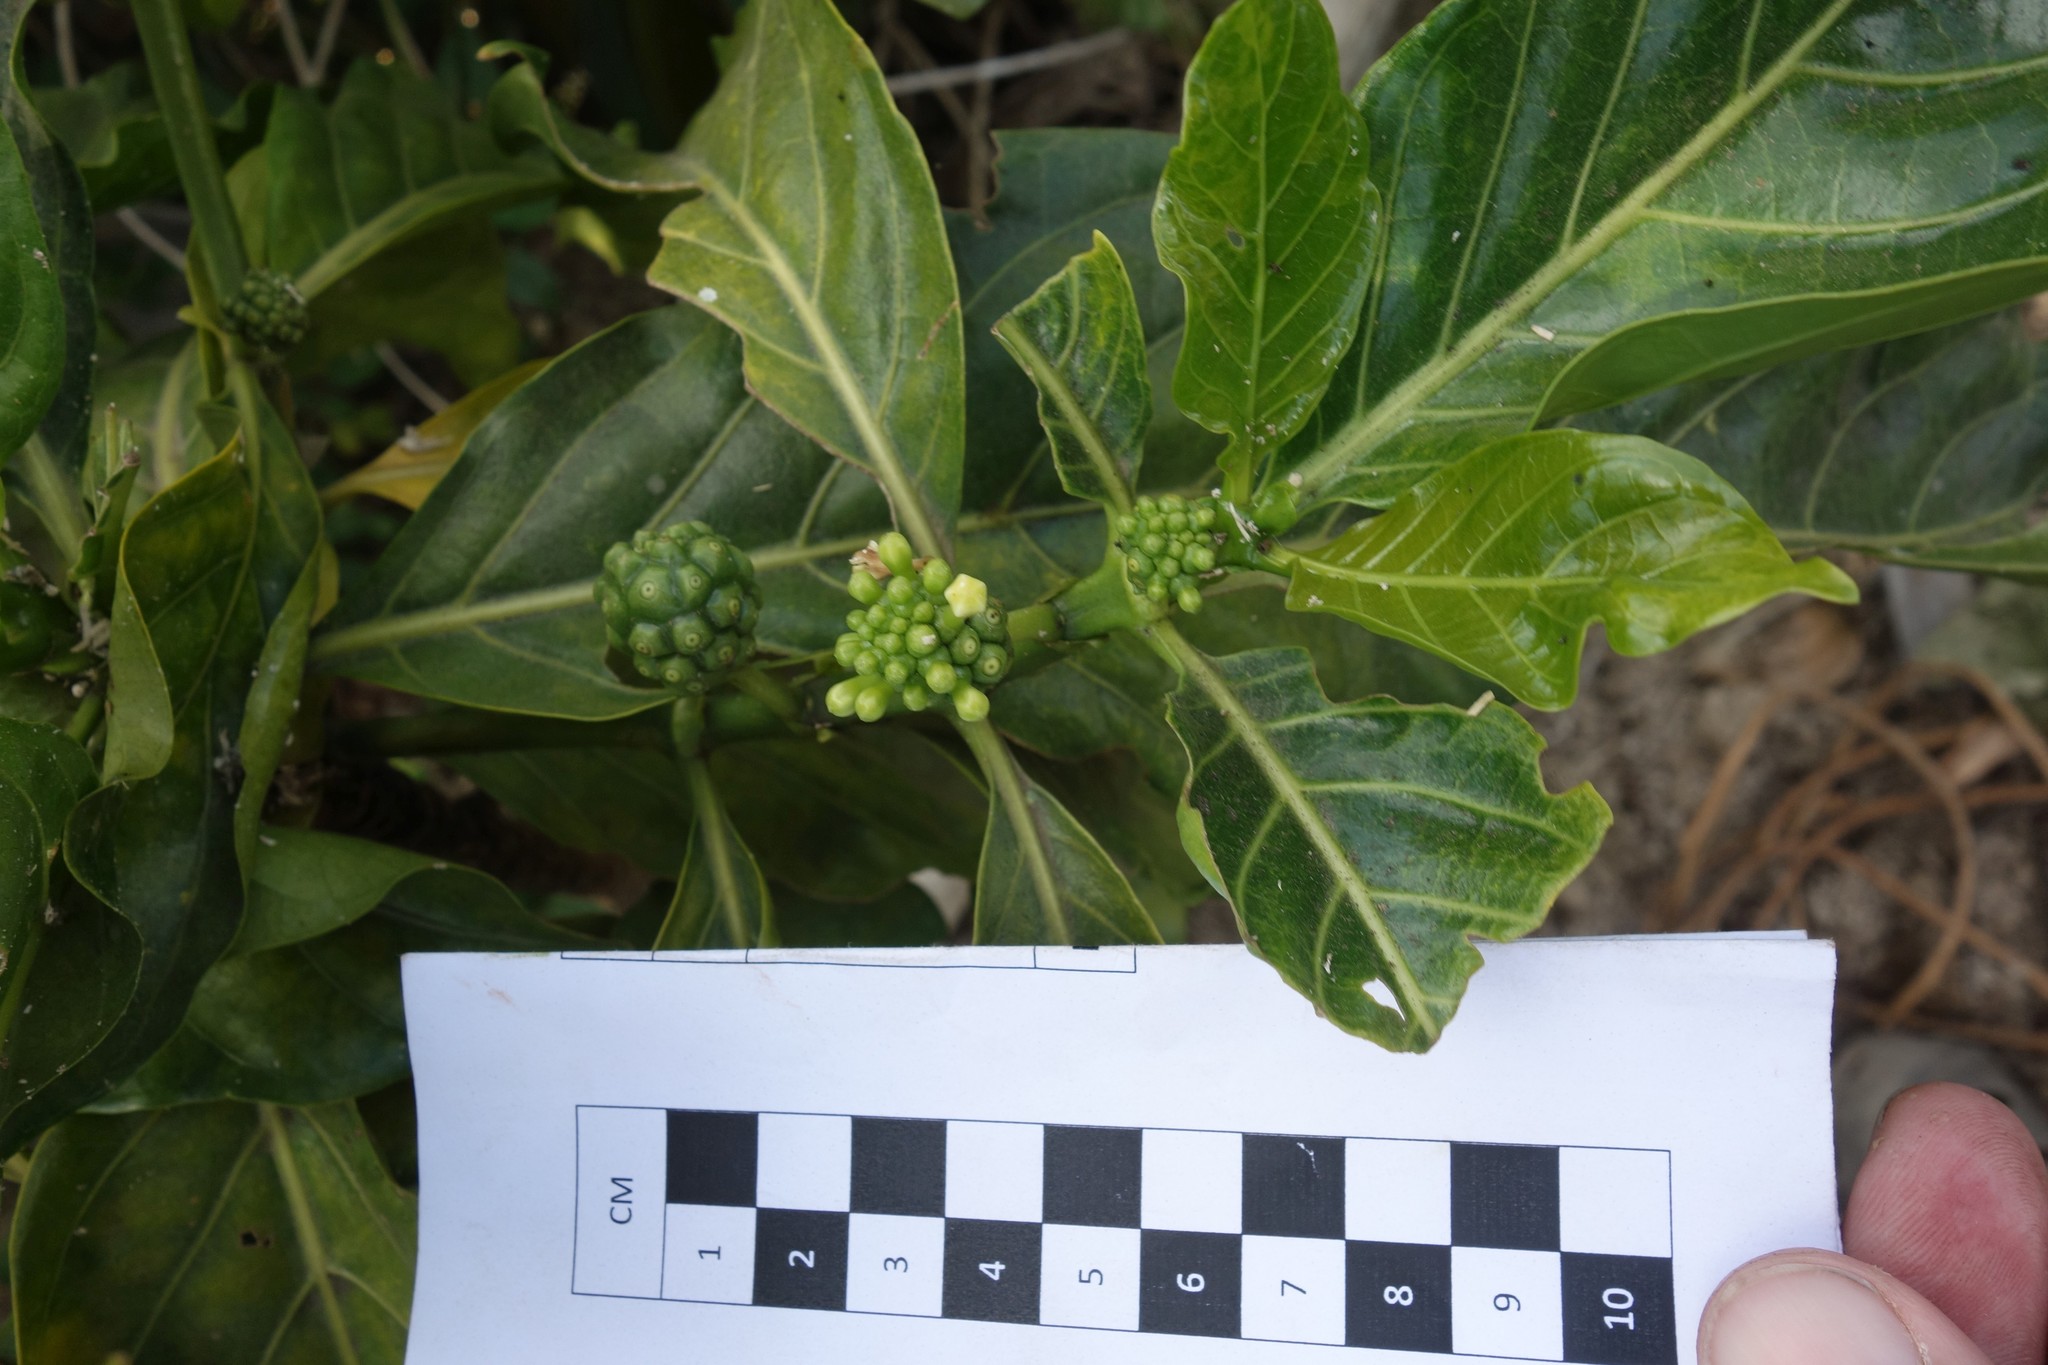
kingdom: Plantae
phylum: Tracheophyta
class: Magnoliopsida
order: Gentianales
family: Rubiaceae
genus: Morinda
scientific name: Morinda citrifolia
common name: Indian-mulberry
